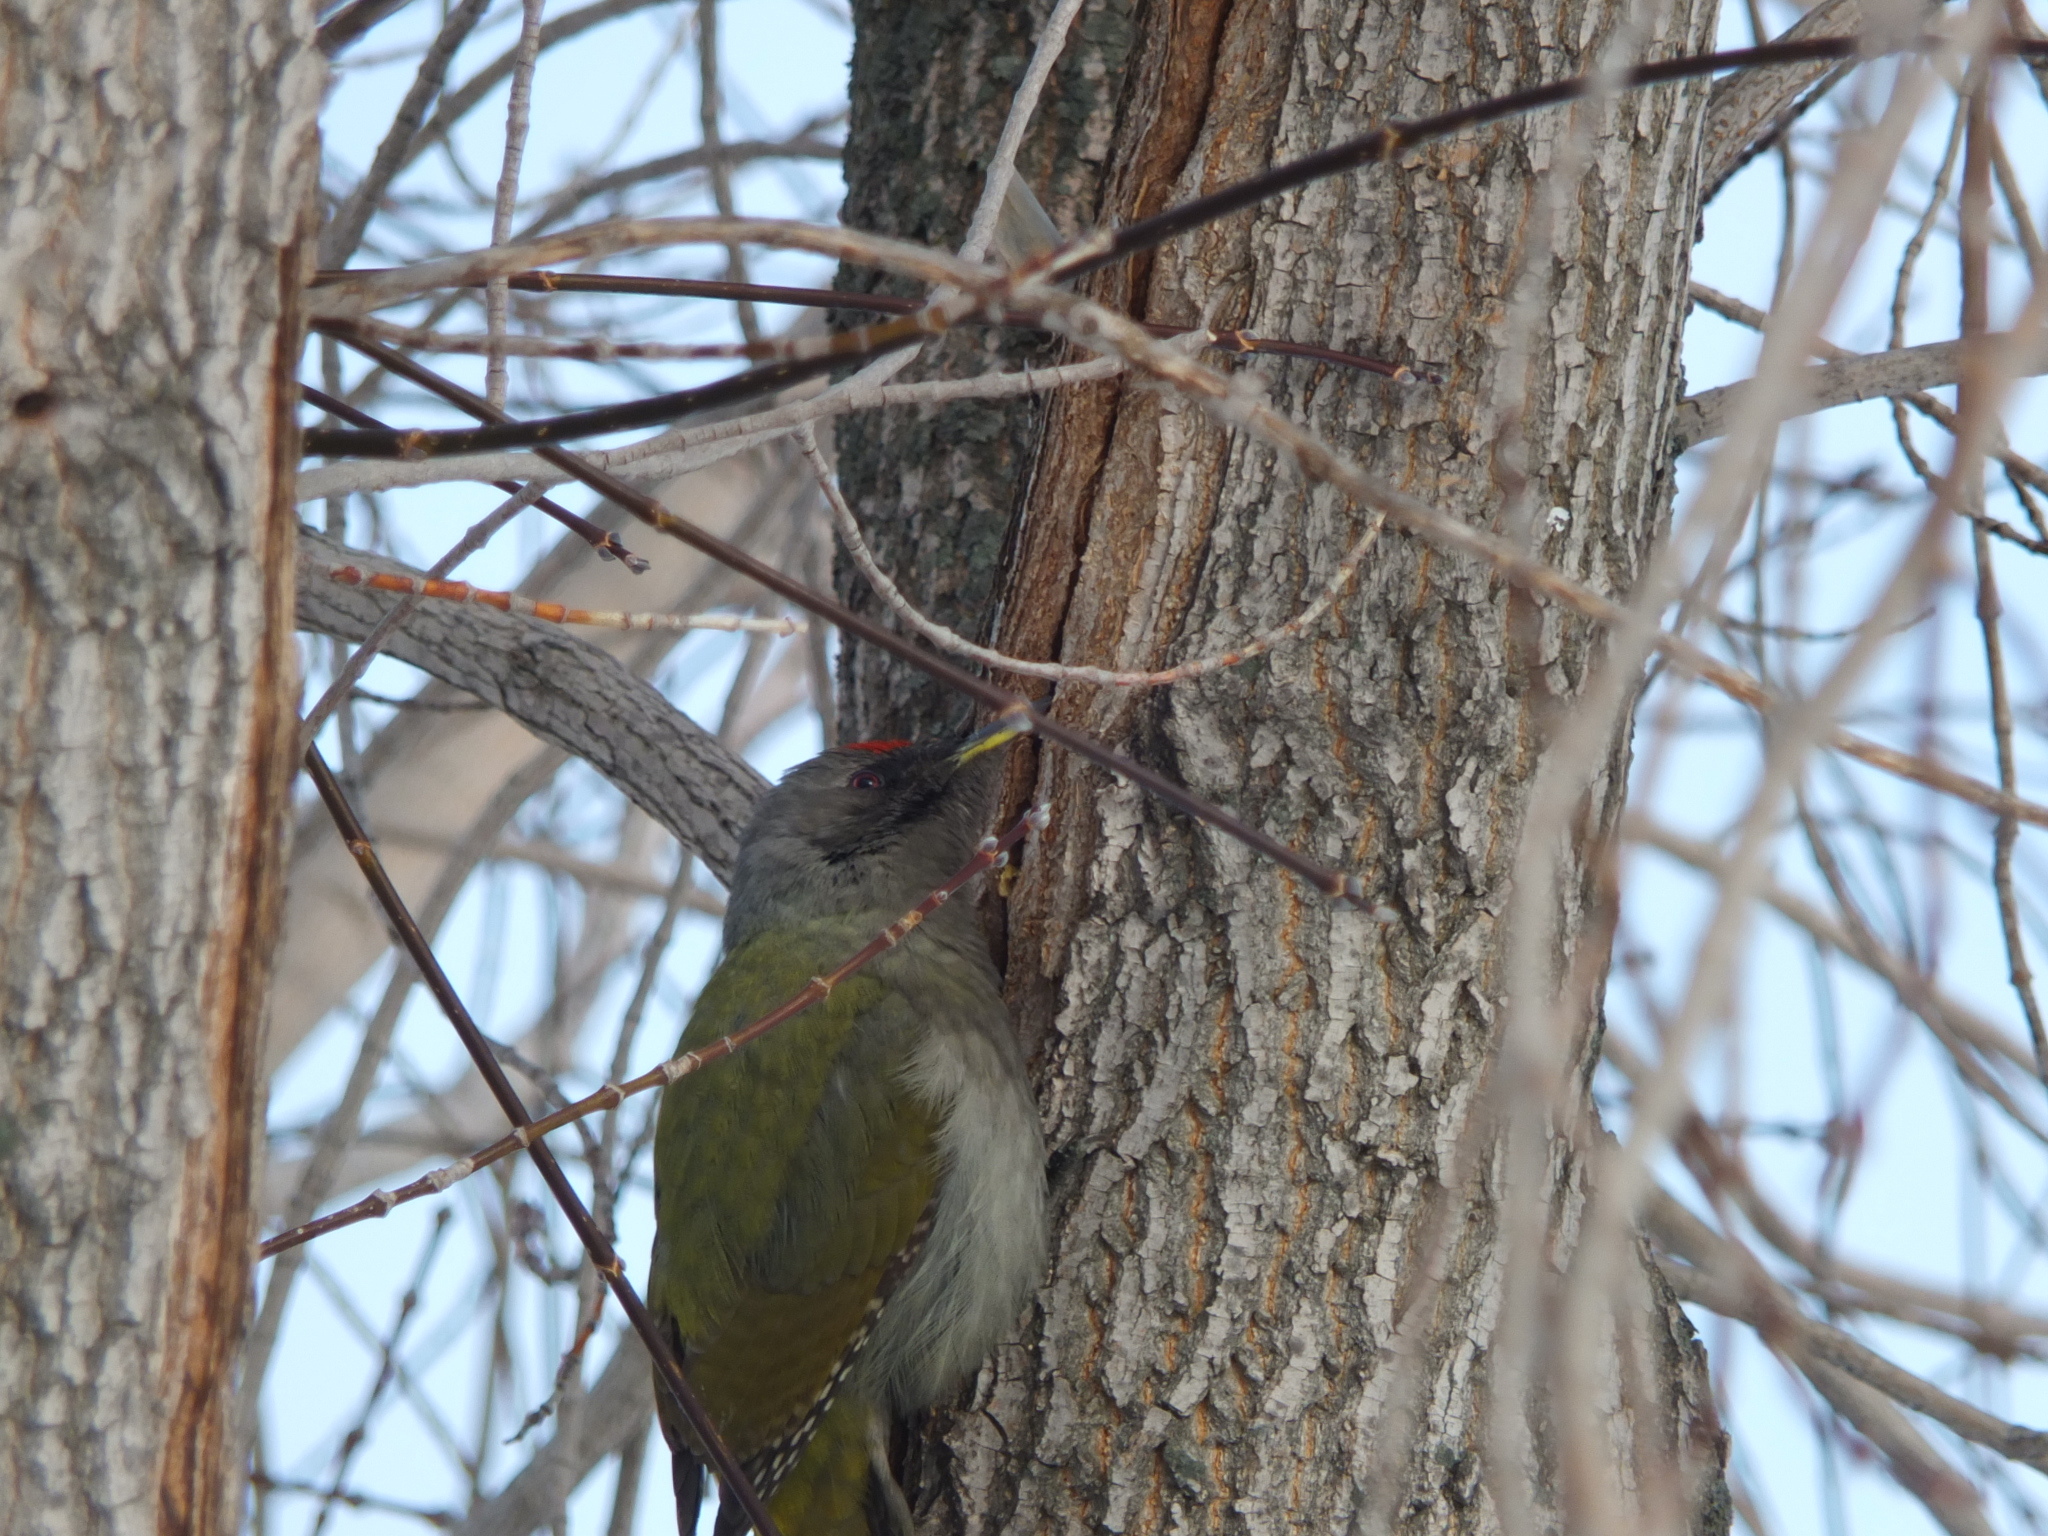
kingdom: Animalia
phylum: Chordata
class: Aves
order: Piciformes
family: Picidae
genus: Picus
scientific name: Picus canus
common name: Grey-headed woodpecker
